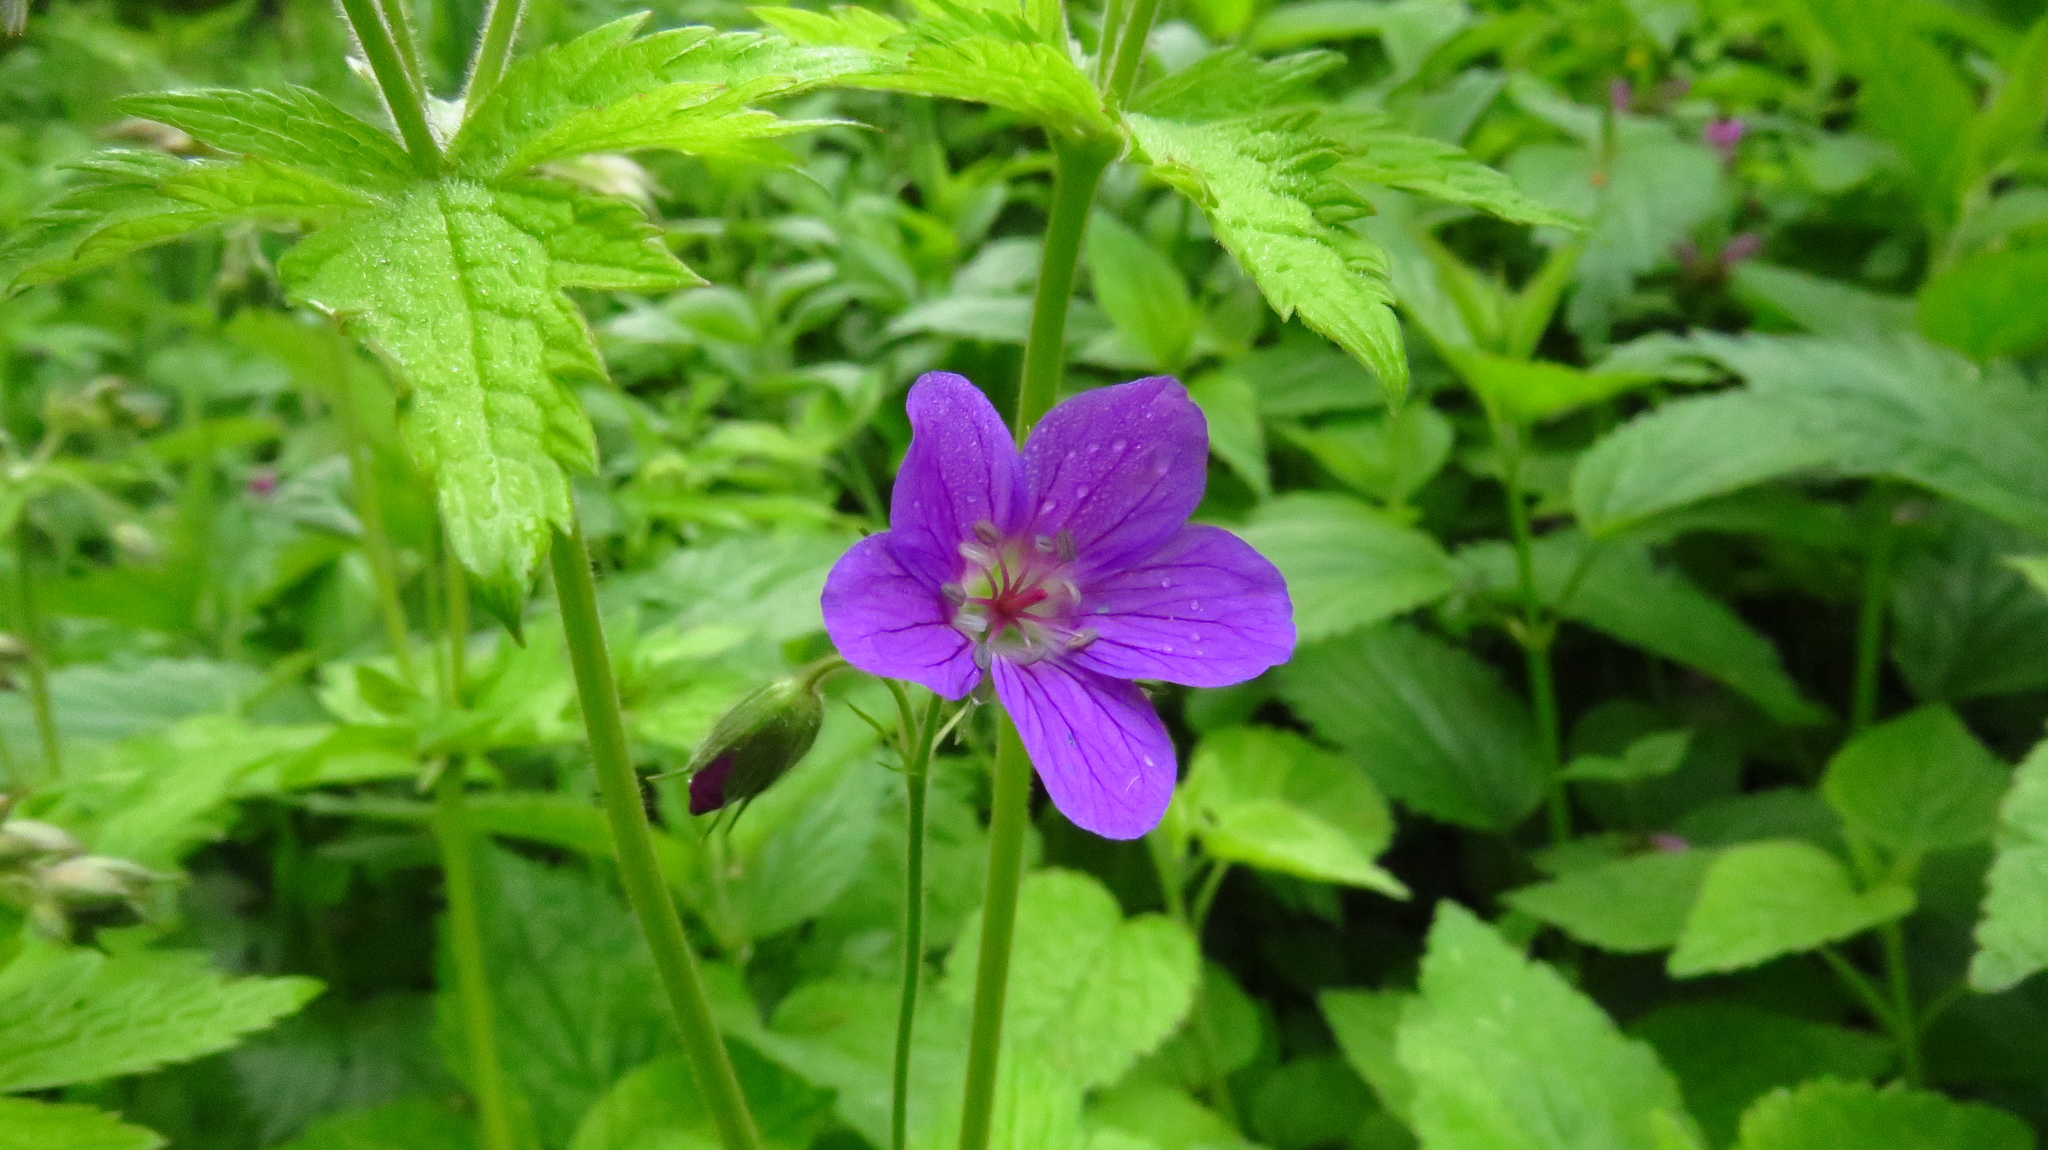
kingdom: Plantae
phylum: Tracheophyta
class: Magnoliopsida
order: Geraniales
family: Geraniaceae
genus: Geranium
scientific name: Geranium sylvaticum
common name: Wood crane's-bill
